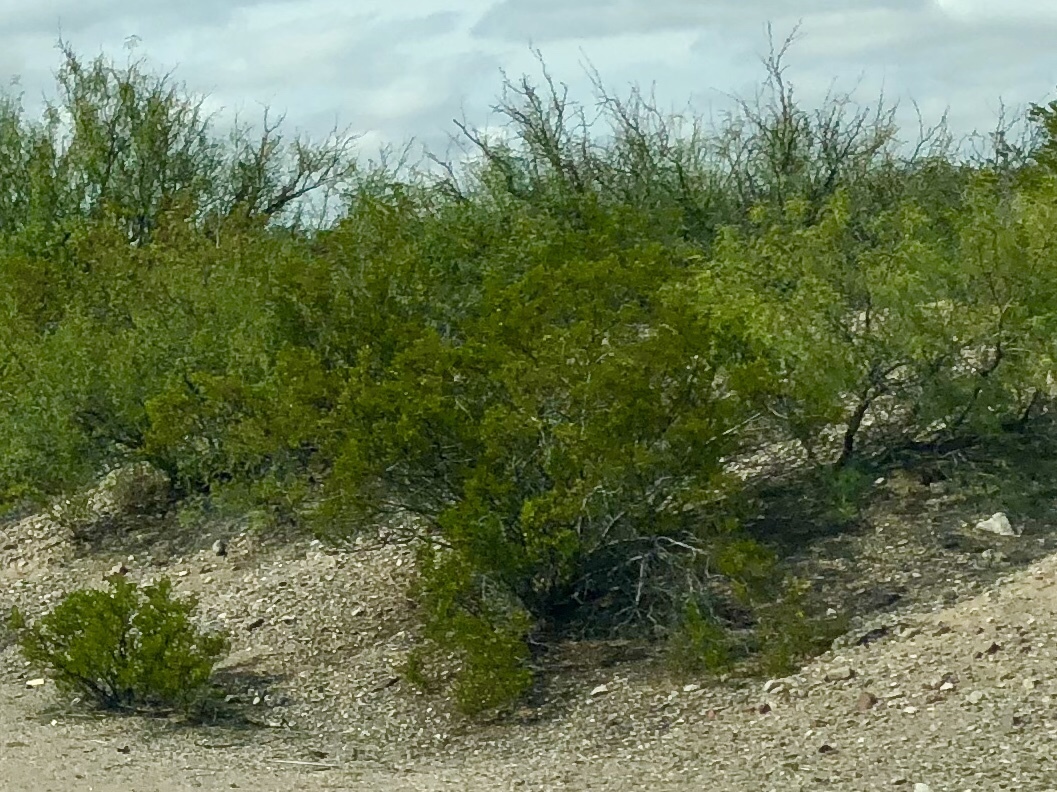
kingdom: Plantae
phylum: Tracheophyta
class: Magnoliopsida
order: Zygophyllales
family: Zygophyllaceae
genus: Larrea
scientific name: Larrea tridentata
